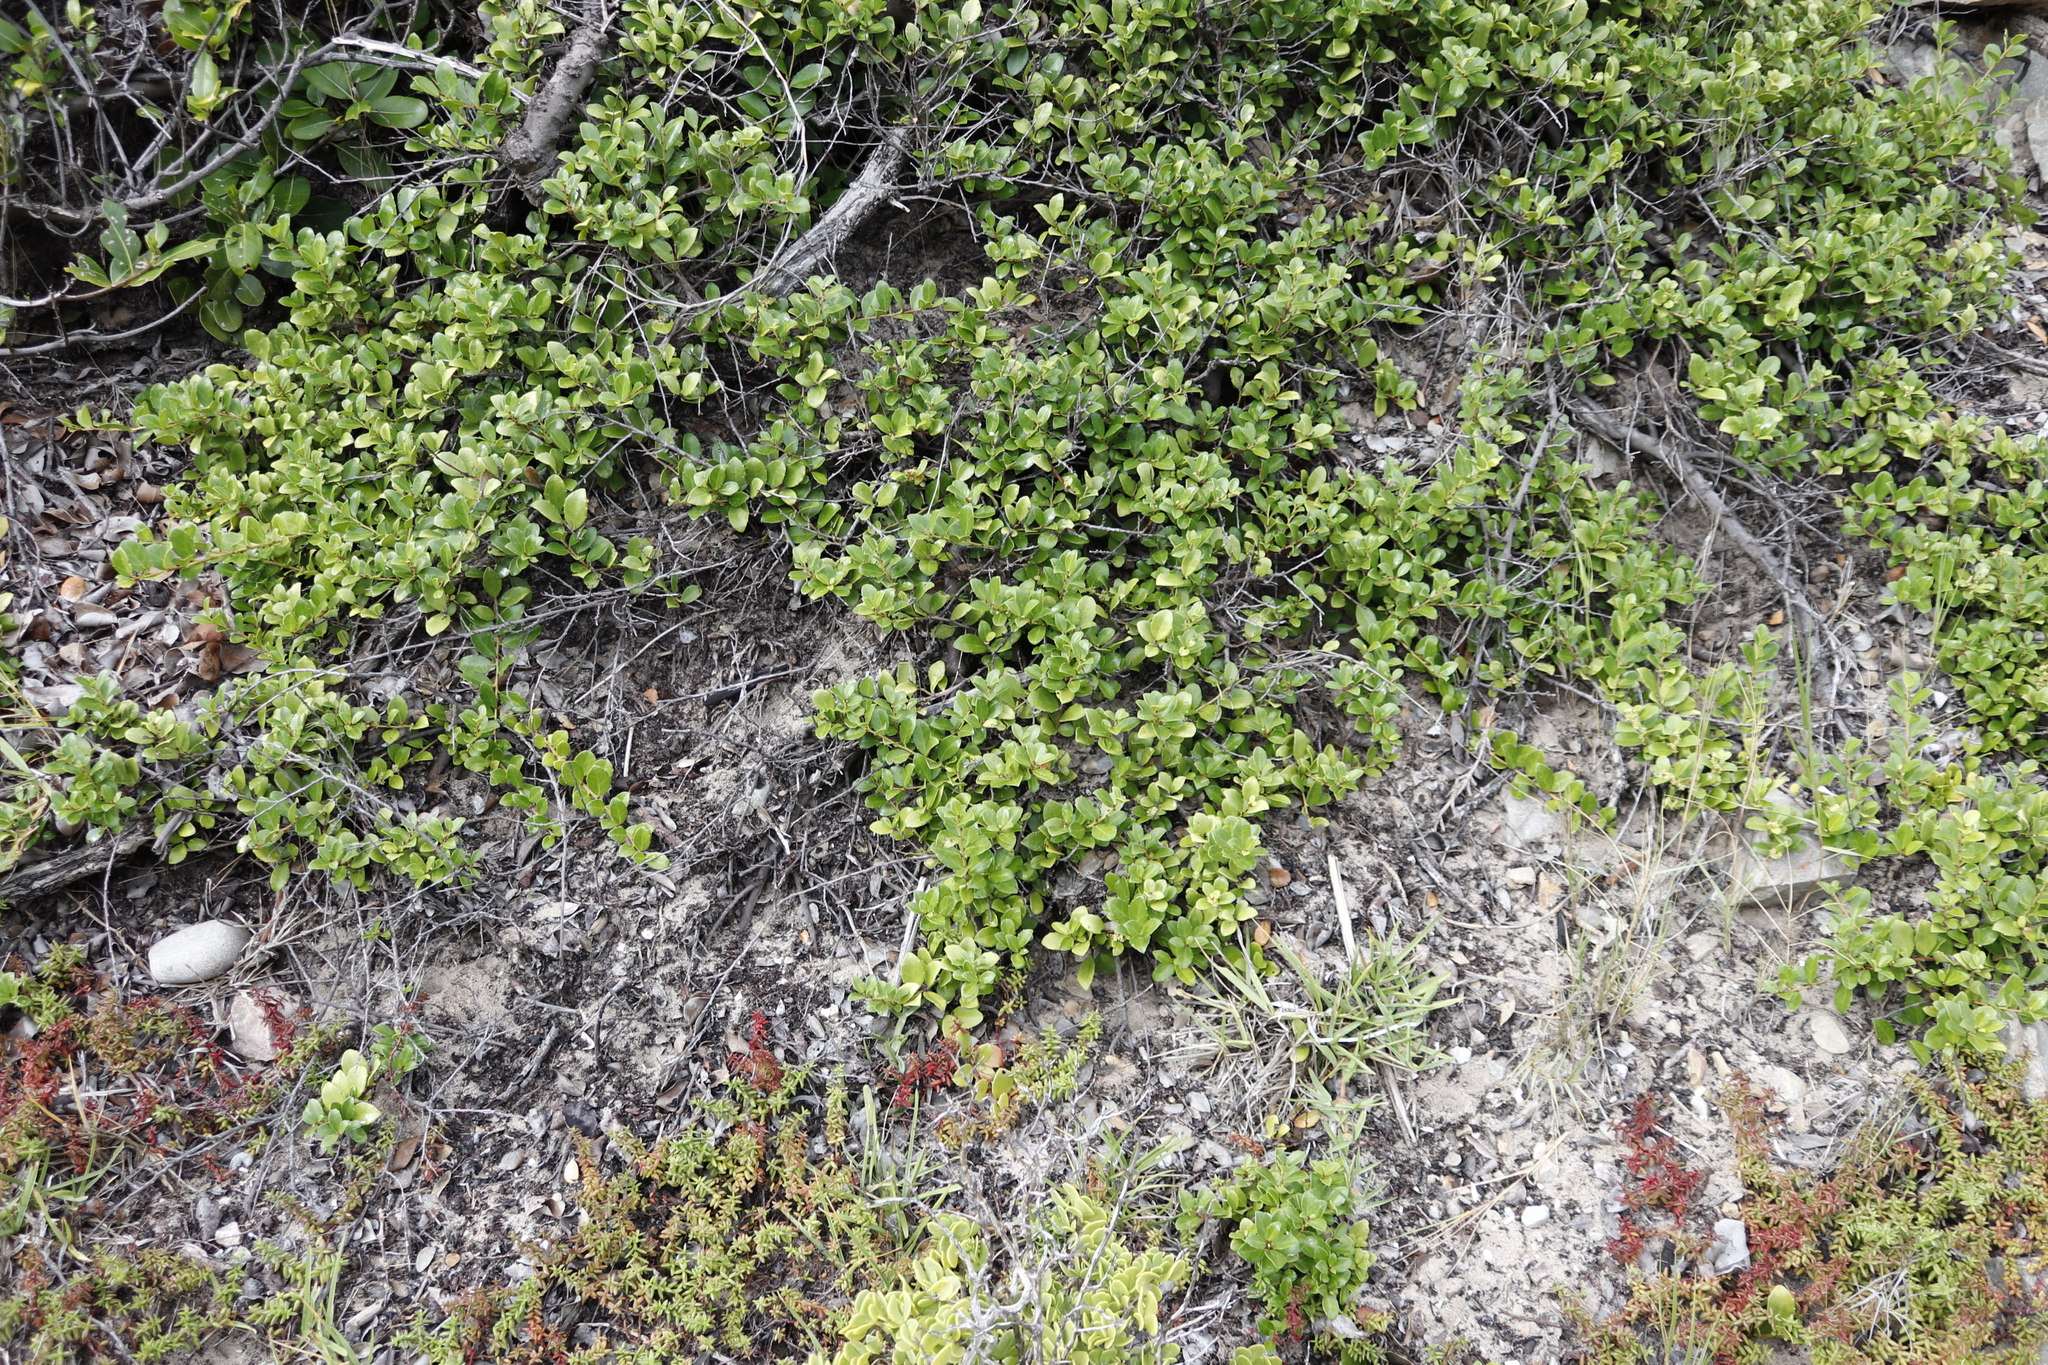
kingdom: Plantae
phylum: Tracheophyta
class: Magnoliopsida
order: Celastrales
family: Celastraceae
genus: Gymnosporia
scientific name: Gymnosporia procumbens
